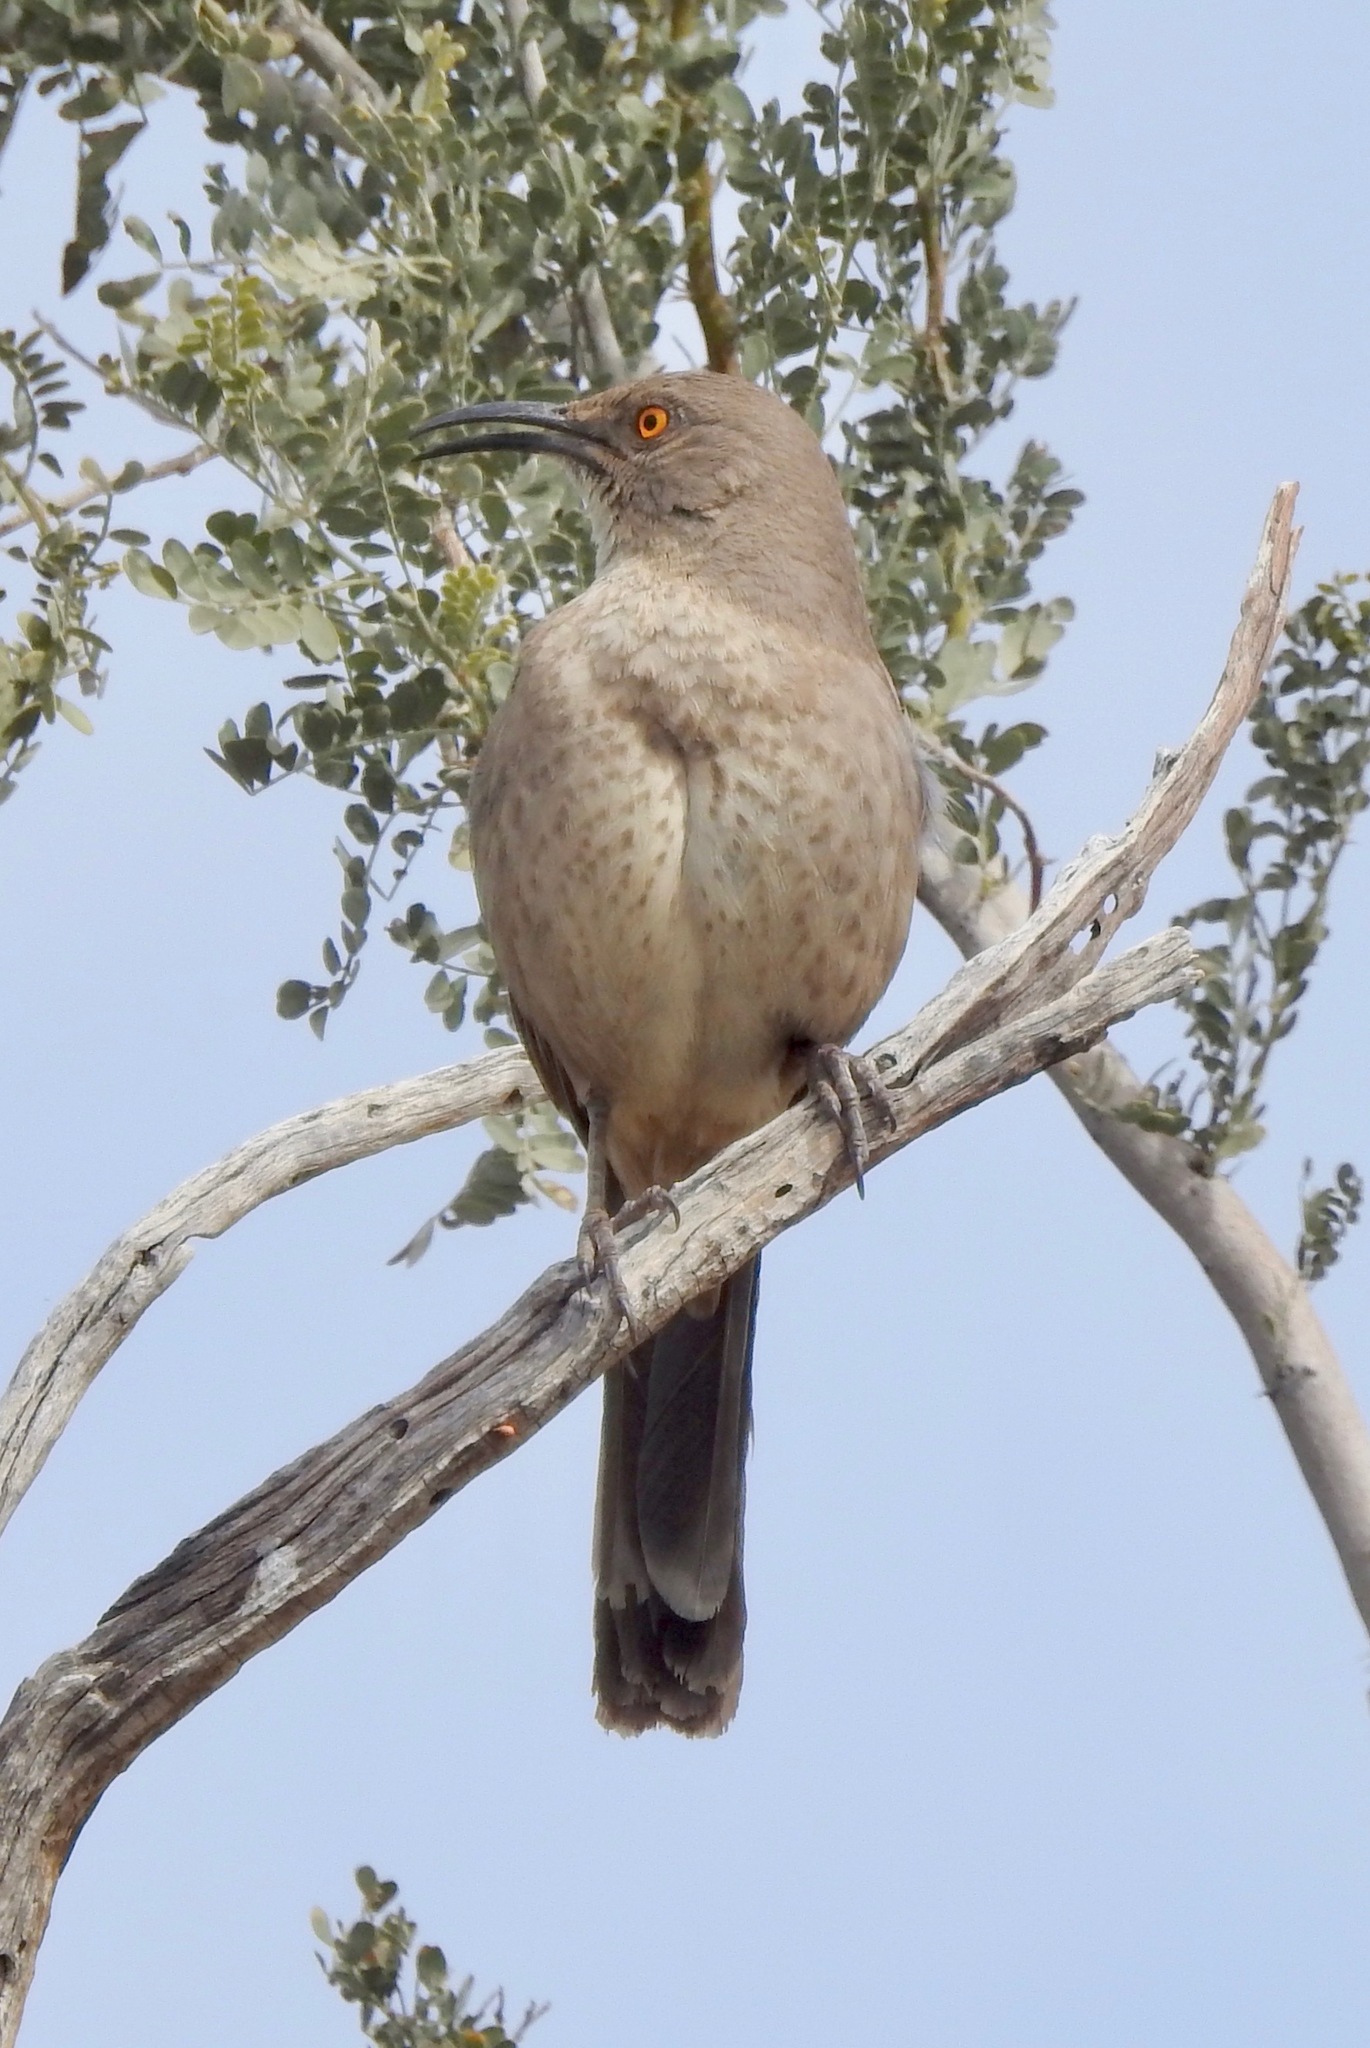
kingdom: Animalia
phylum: Chordata
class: Aves
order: Passeriformes
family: Mimidae
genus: Toxostoma
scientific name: Toxostoma curvirostre
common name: Curve-billed thrasher
